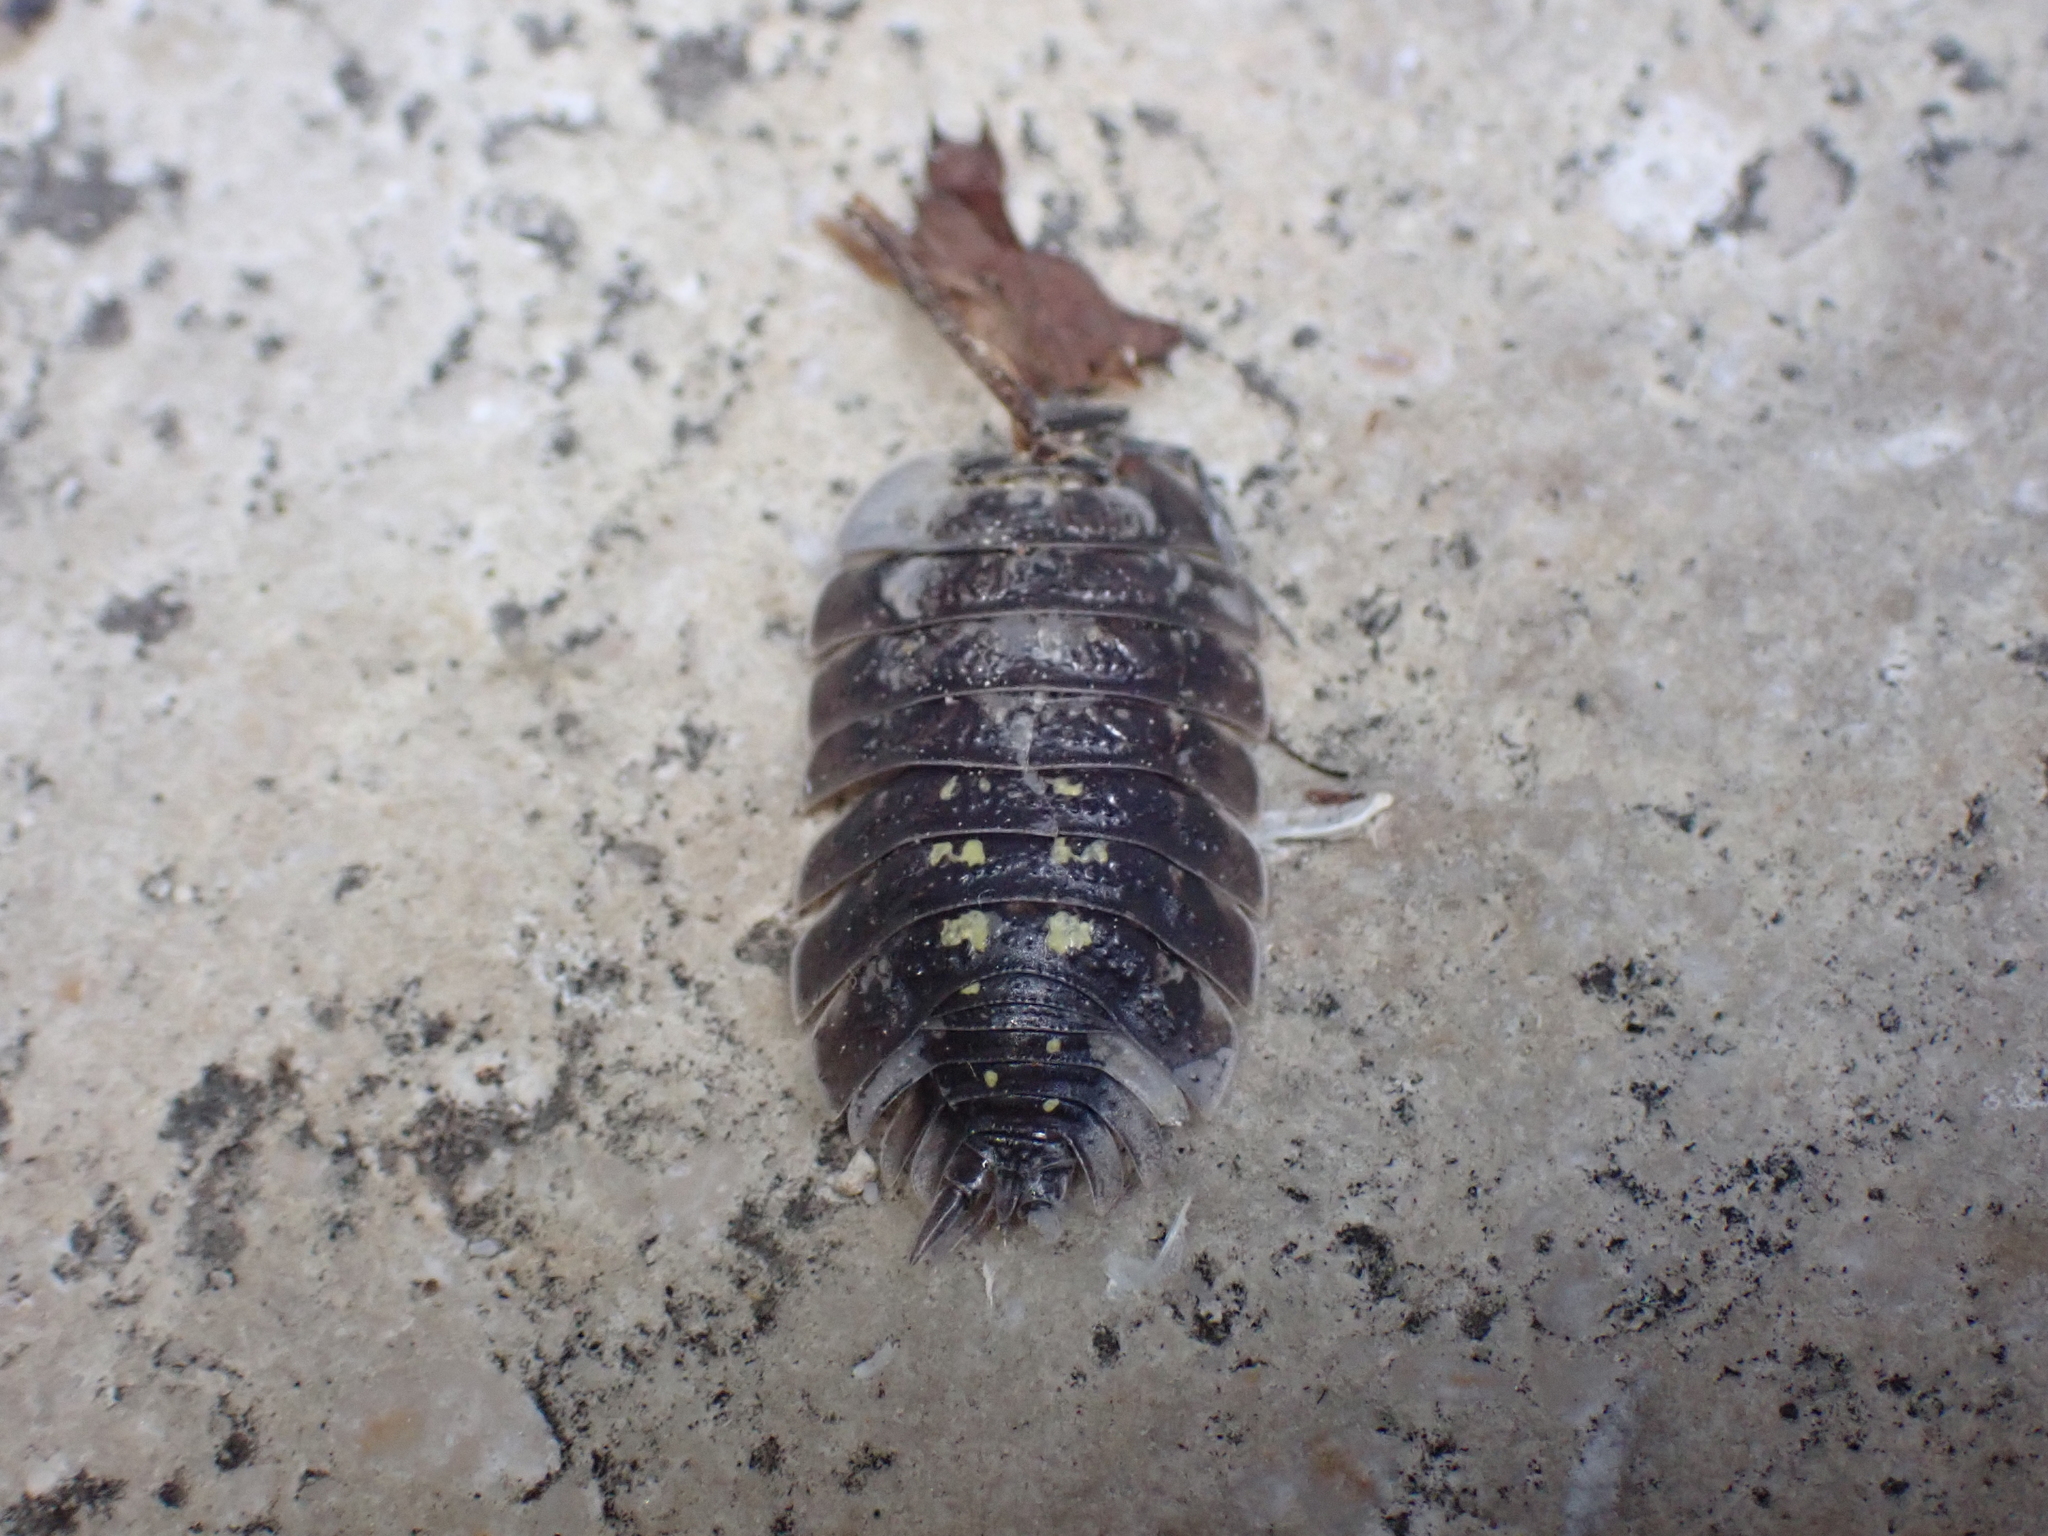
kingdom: Animalia
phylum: Arthropoda
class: Malacostraca
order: Isopoda
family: Porcellionidae
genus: Porcellio
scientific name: Porcellio spinipennis
